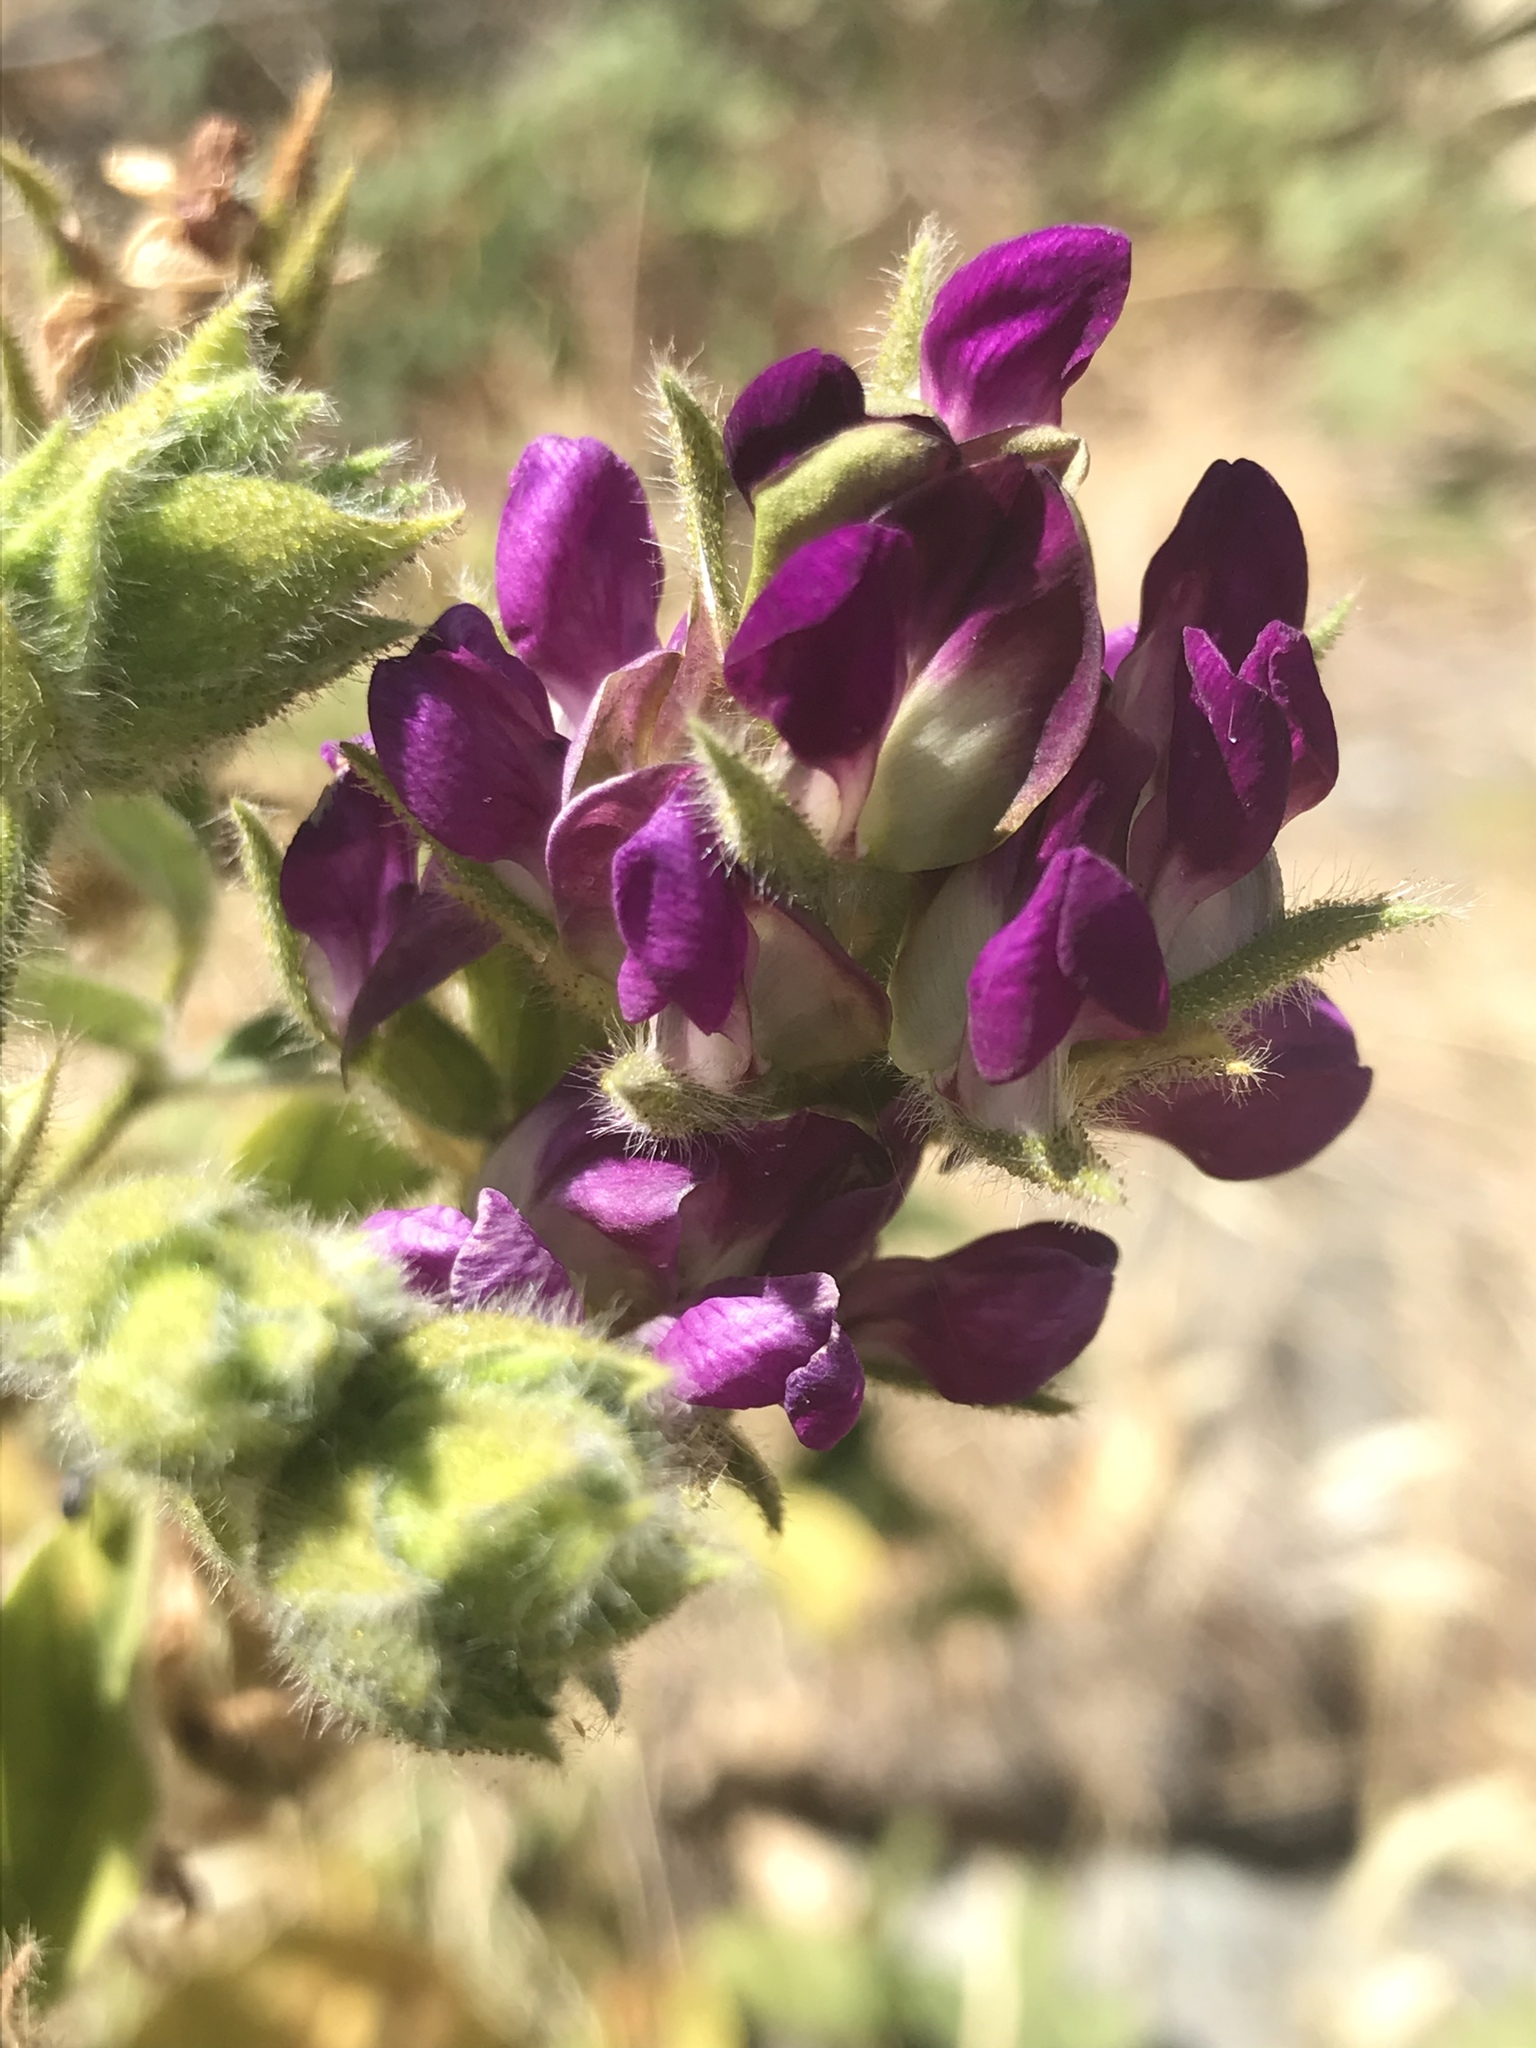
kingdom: Plantae
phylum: Tracheophyta
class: Magnoliopsida
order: Fabales
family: Fabaceae
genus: Hoita
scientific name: Hoita strobilina
